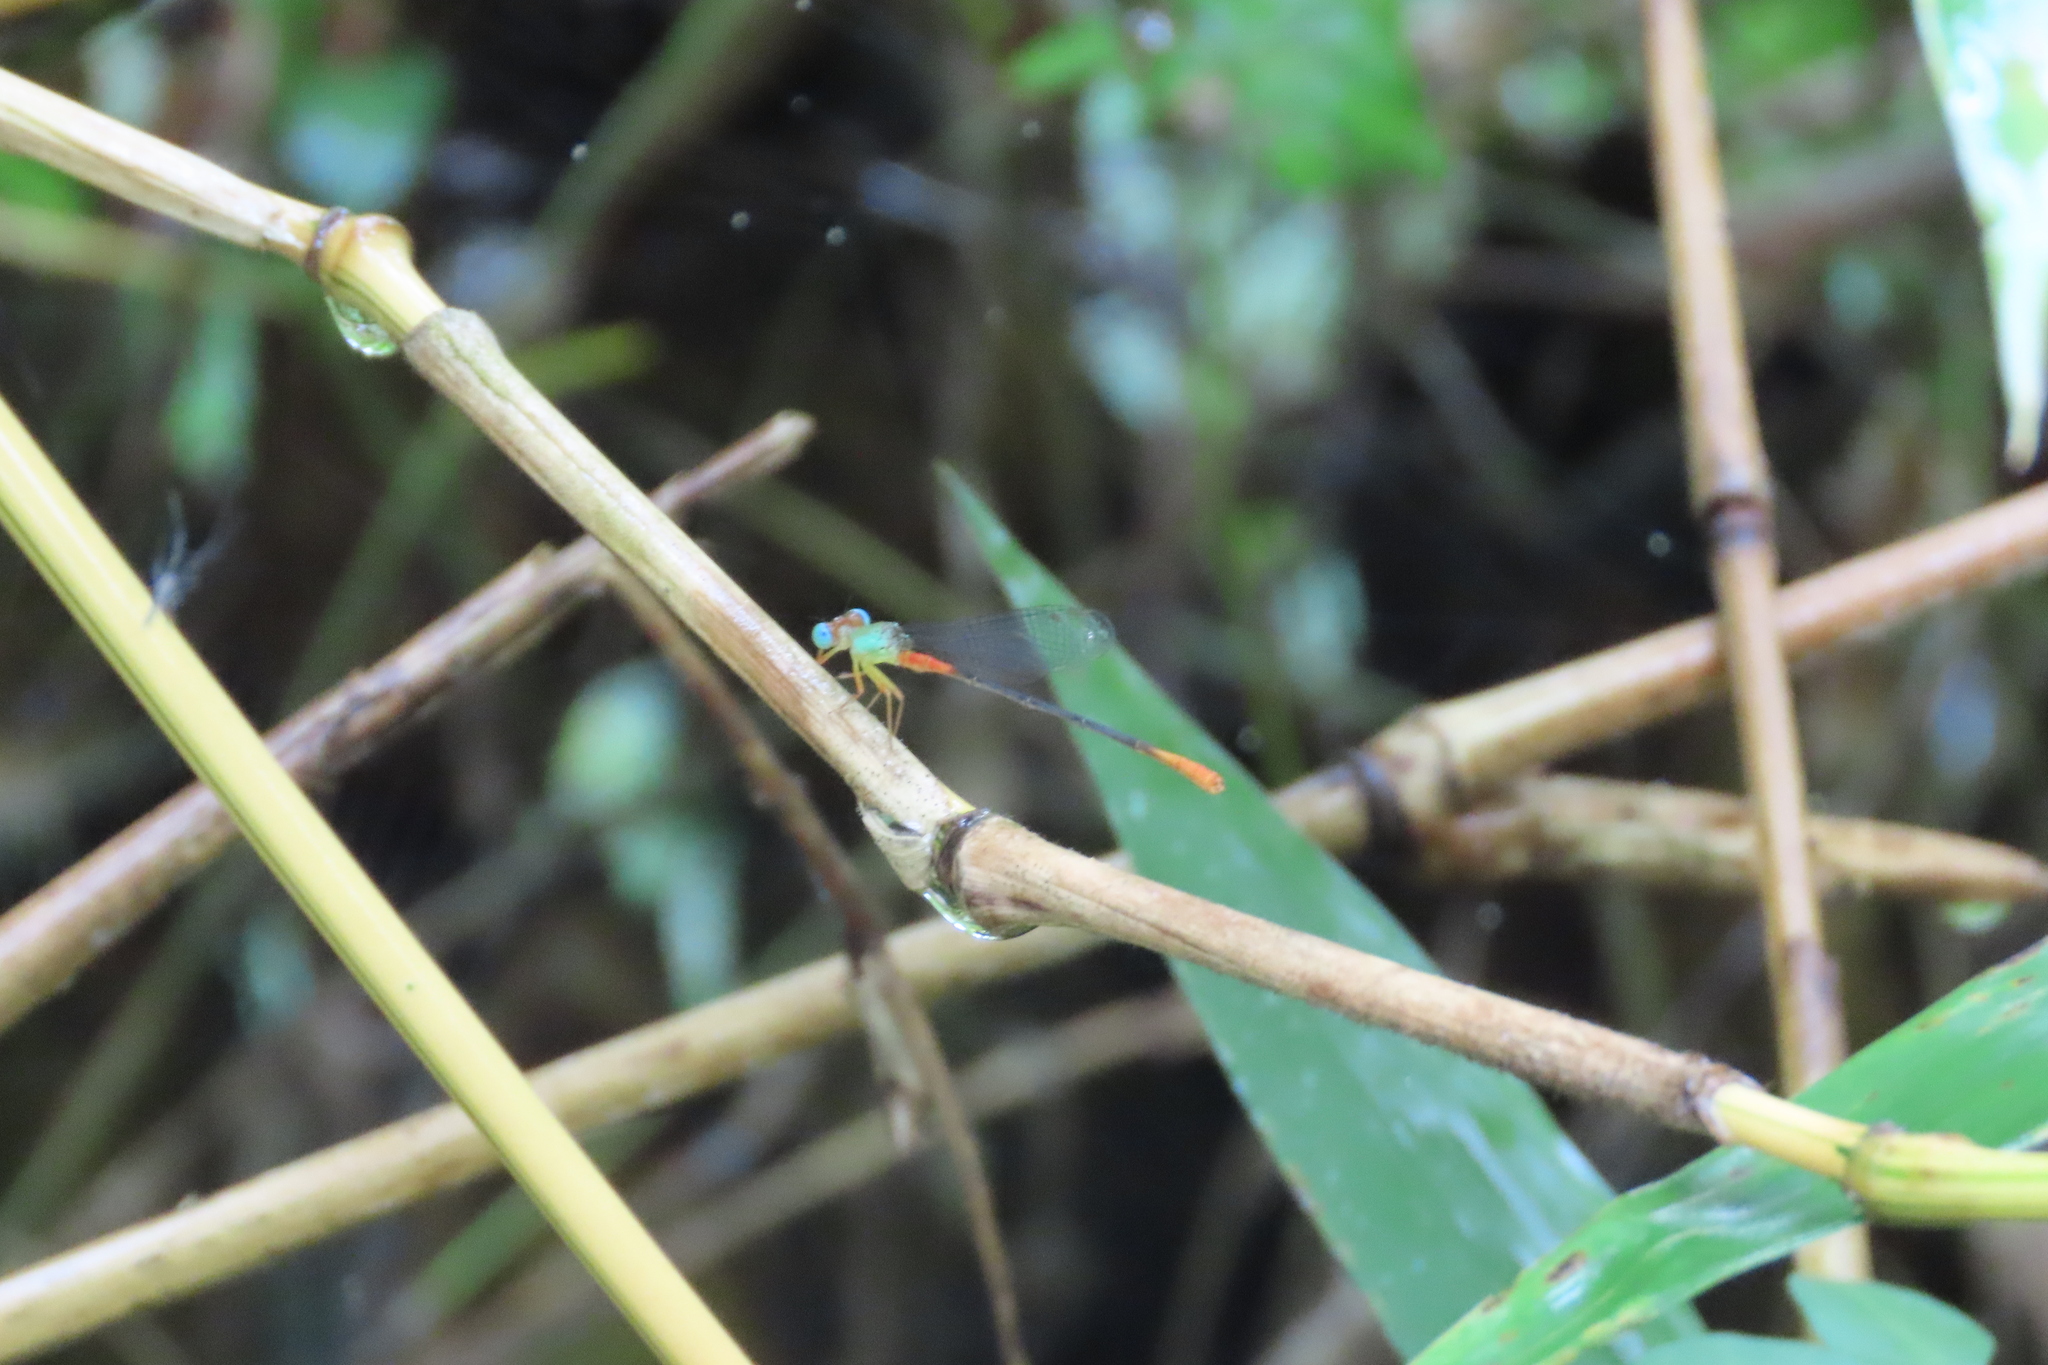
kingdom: Animalia
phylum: Arthropoda
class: Insecta
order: Odonata
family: Coenagrionidae
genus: Ceriagrion
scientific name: Ceriagrion cerinorubellum
